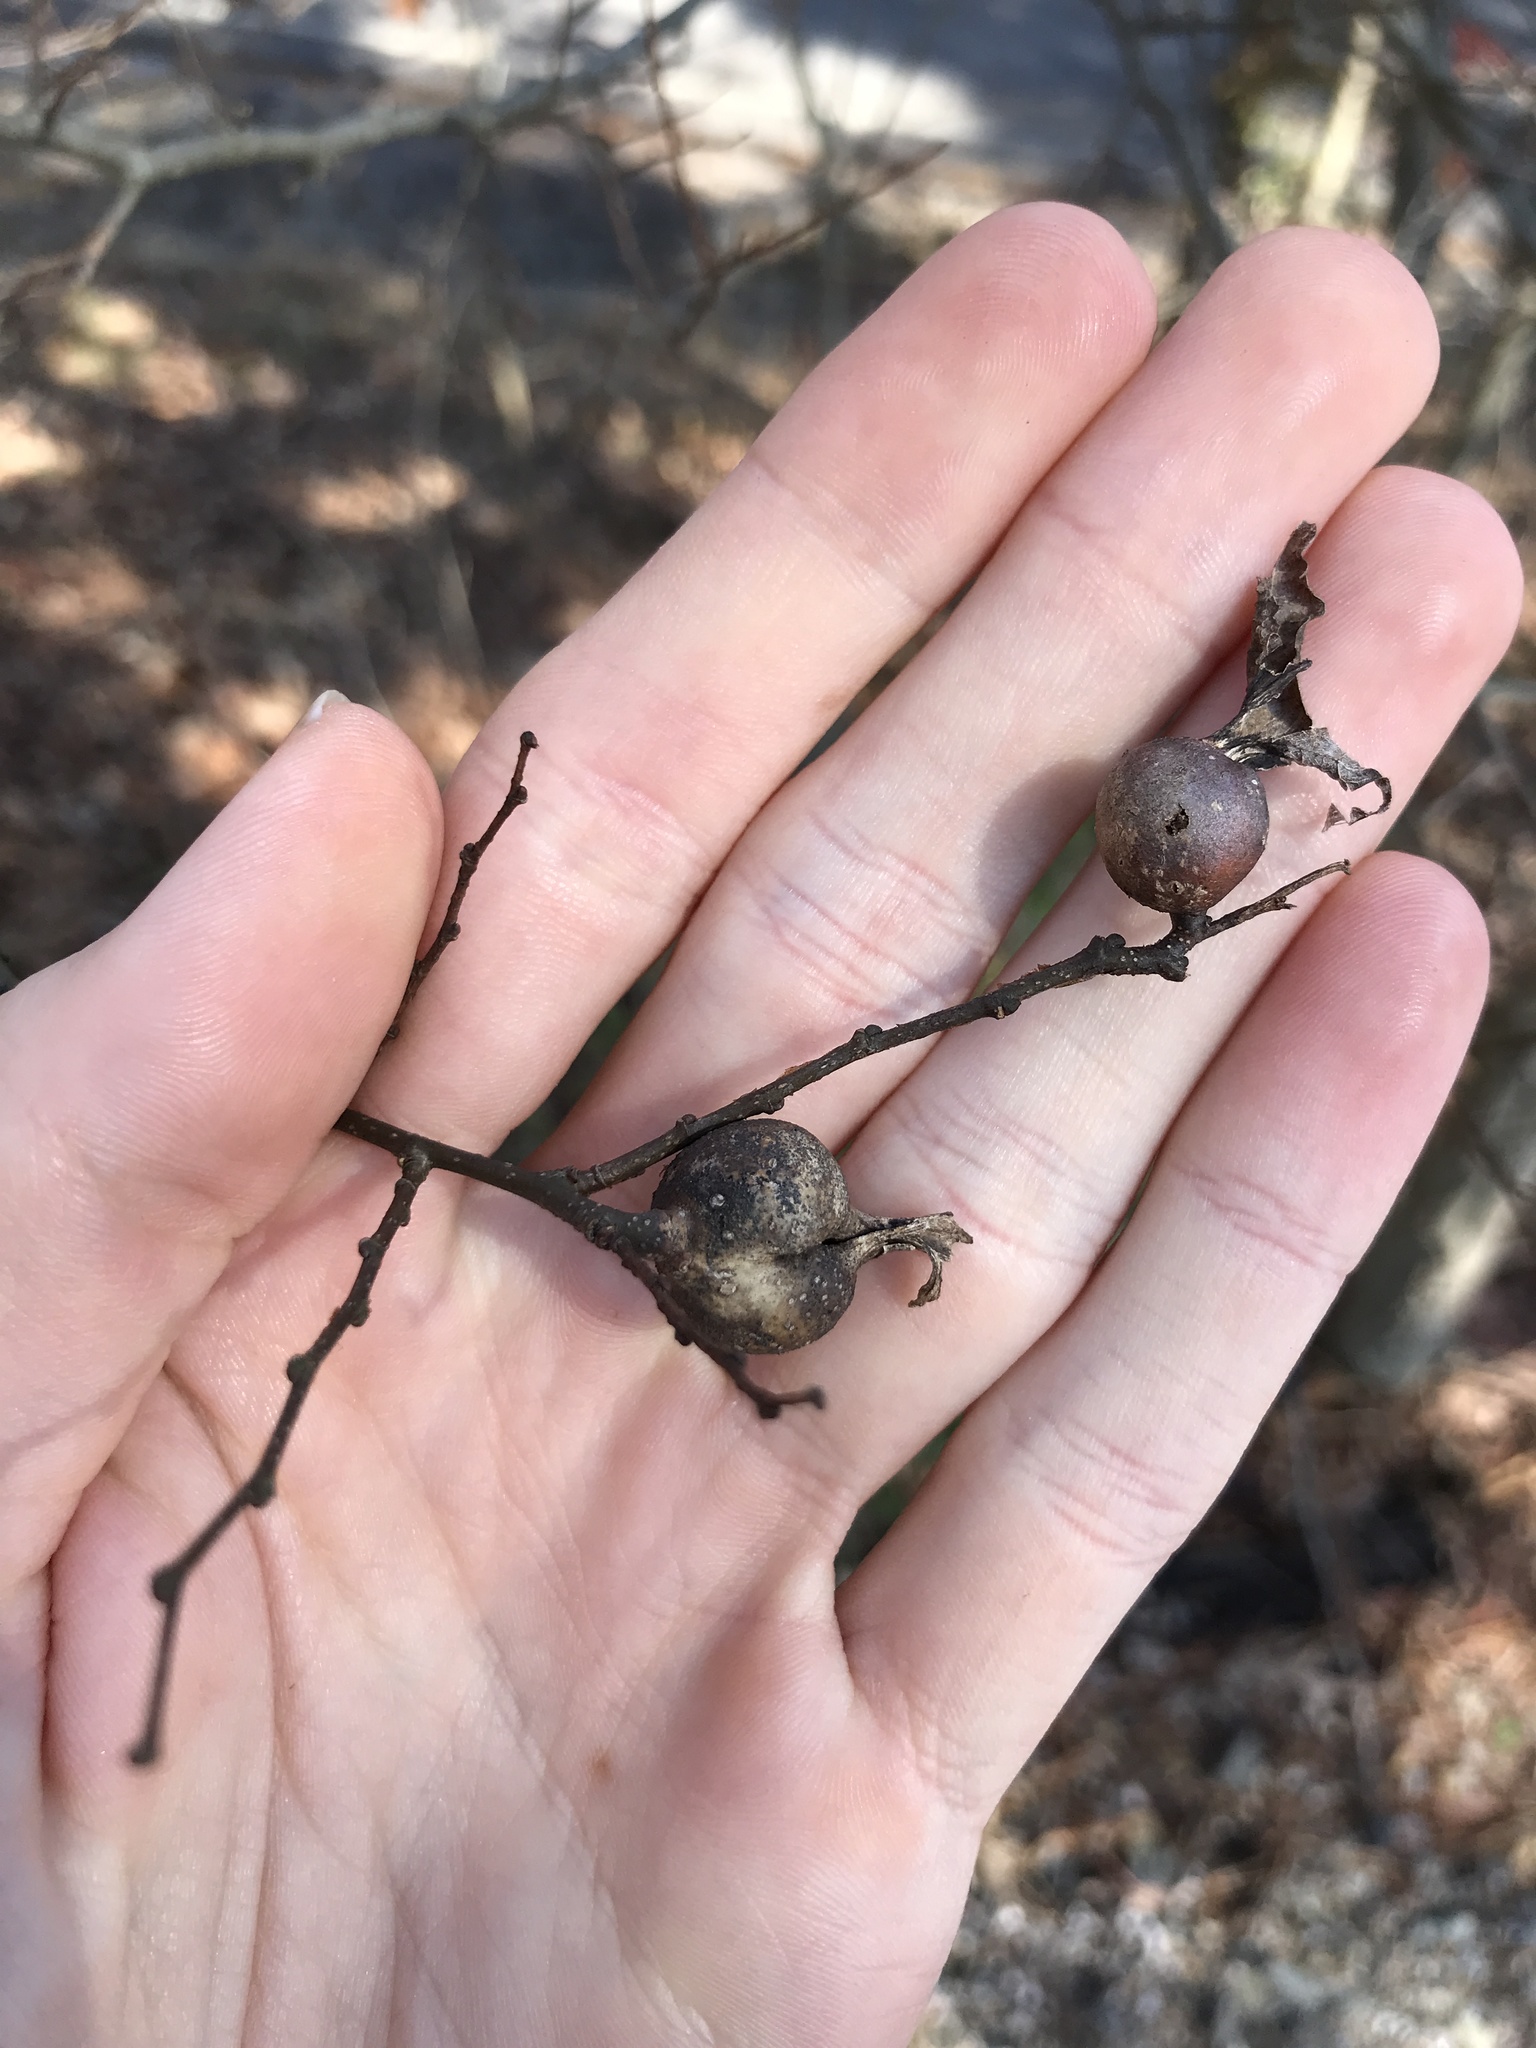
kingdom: Animalia
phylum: Arthropoda
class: Insecta
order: Hemiptera
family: Aphalaridae
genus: Pachypsylla
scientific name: Pachypsylla venusta
